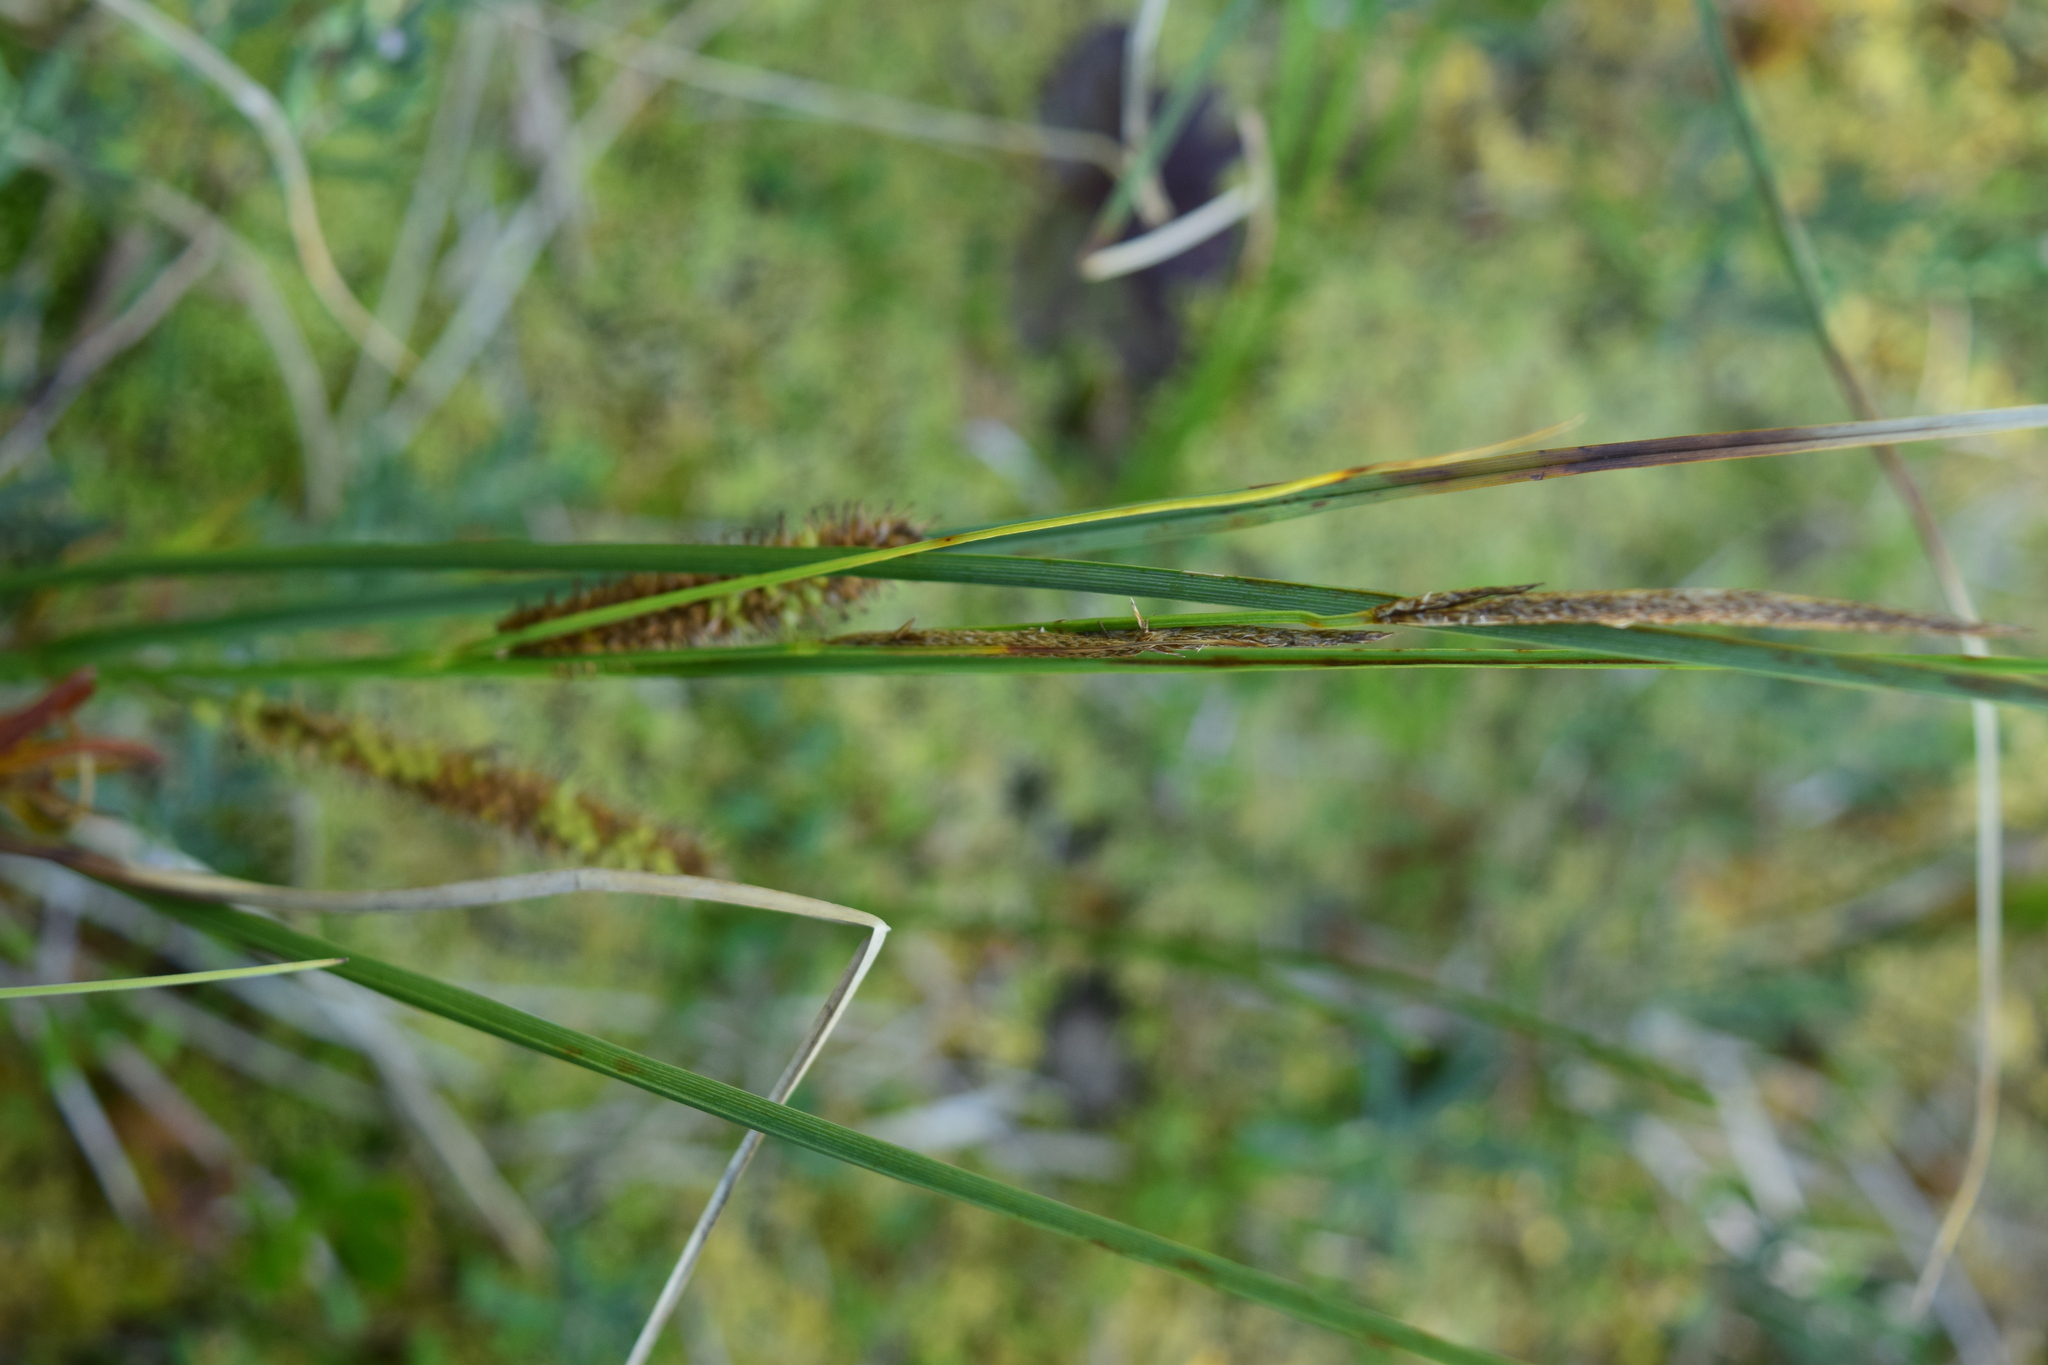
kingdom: Plantae
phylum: Tracheophyta
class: Liliopsida
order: Poales
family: Cyperaceae
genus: Carex
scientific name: Carex rostrata
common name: Bottle sedge
